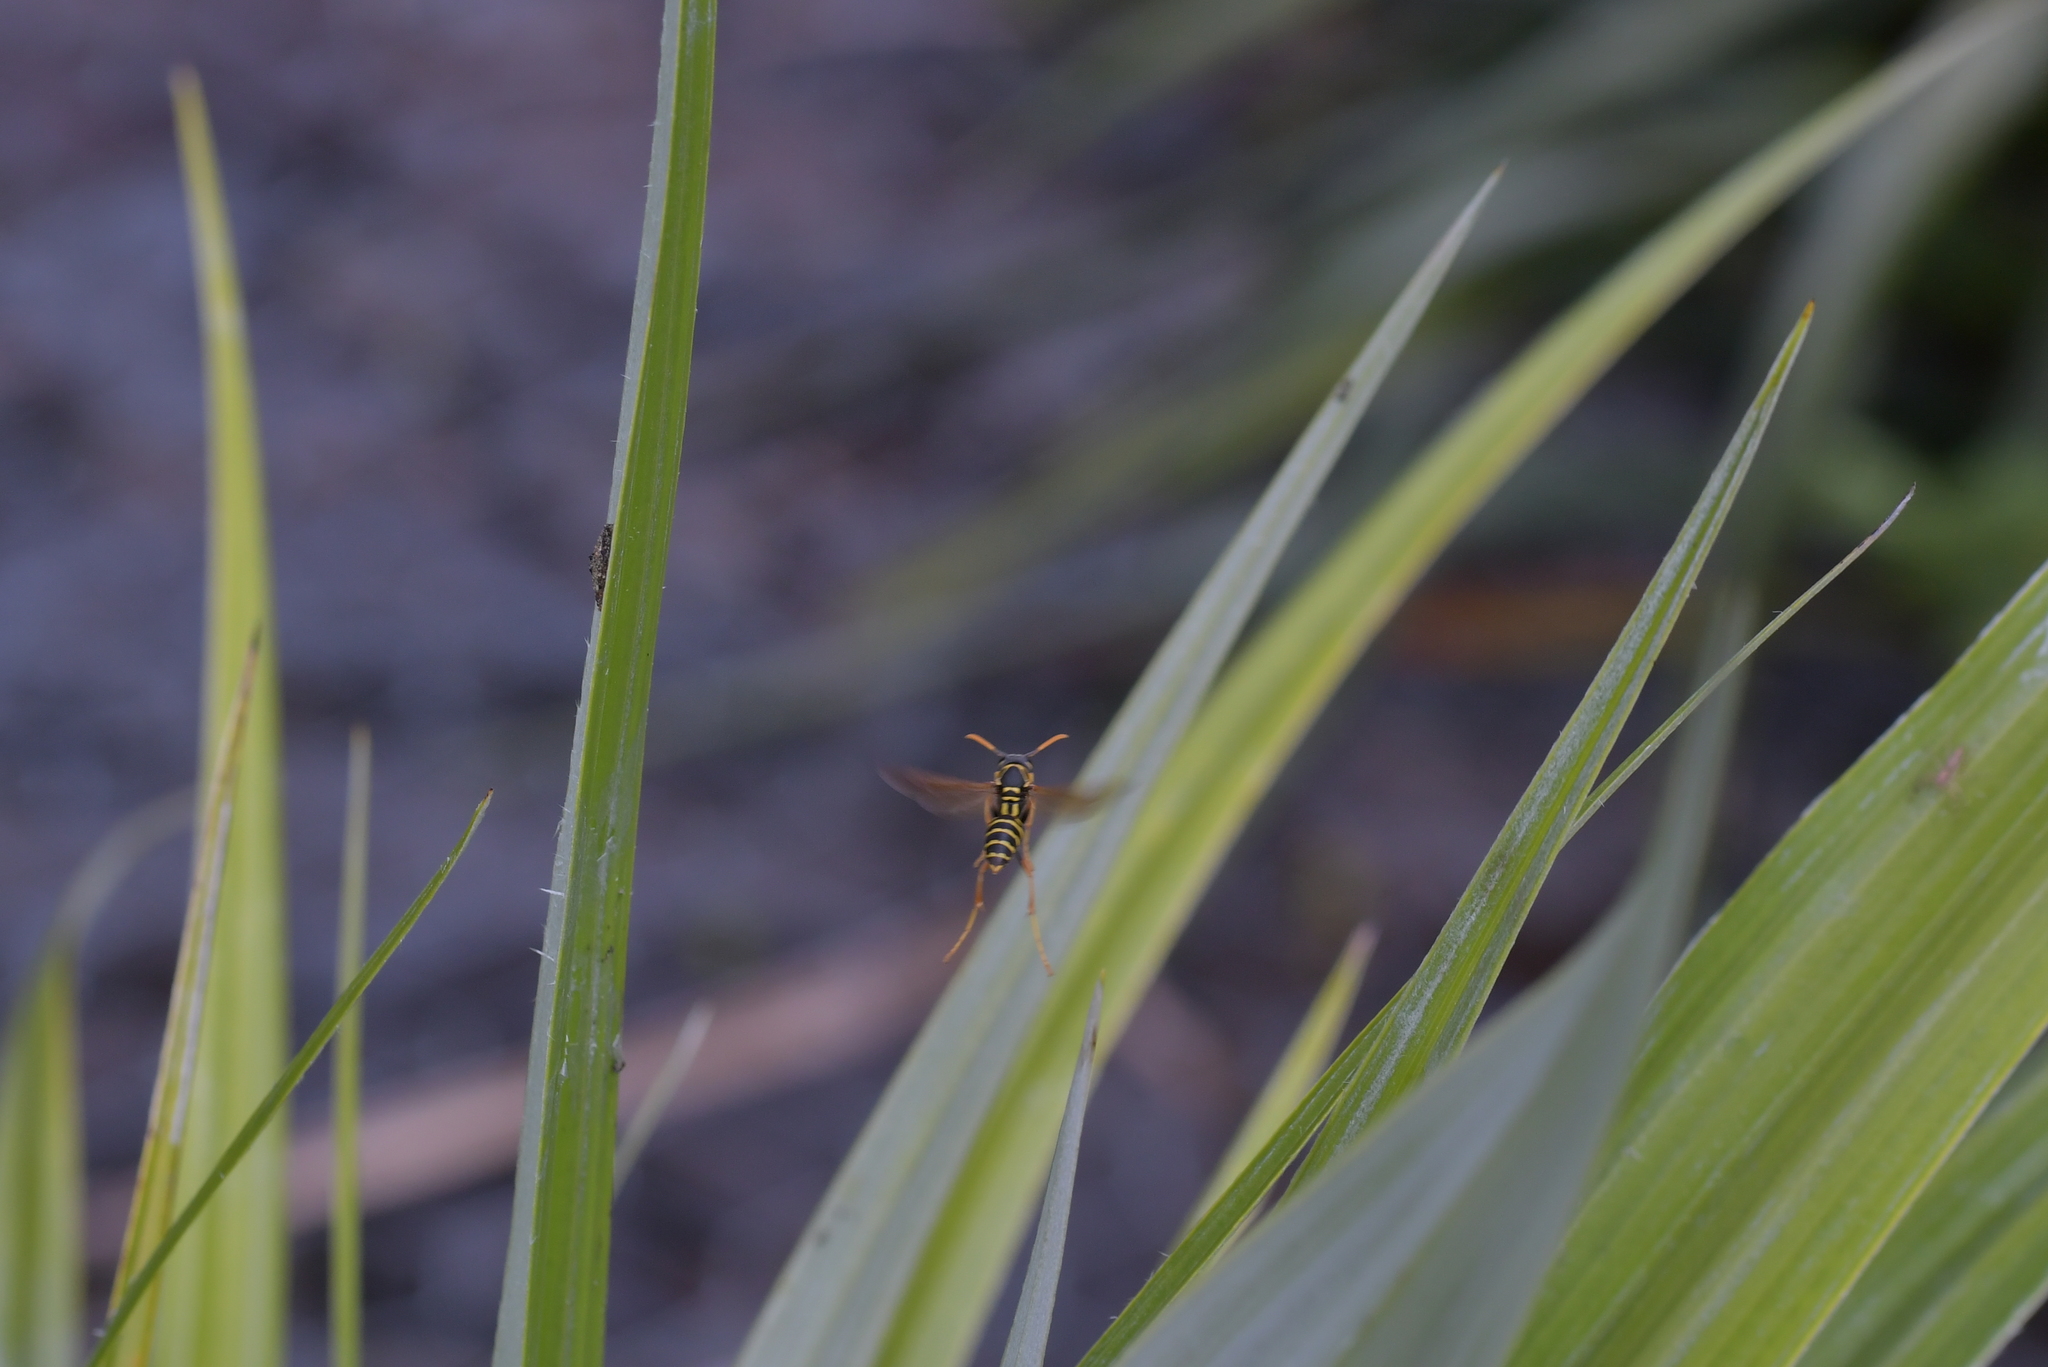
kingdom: Animalia
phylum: Arthropoda
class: Insecta
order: Hymenoptera
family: Eumenidae
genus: Polistes
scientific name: Polistes chinensis
